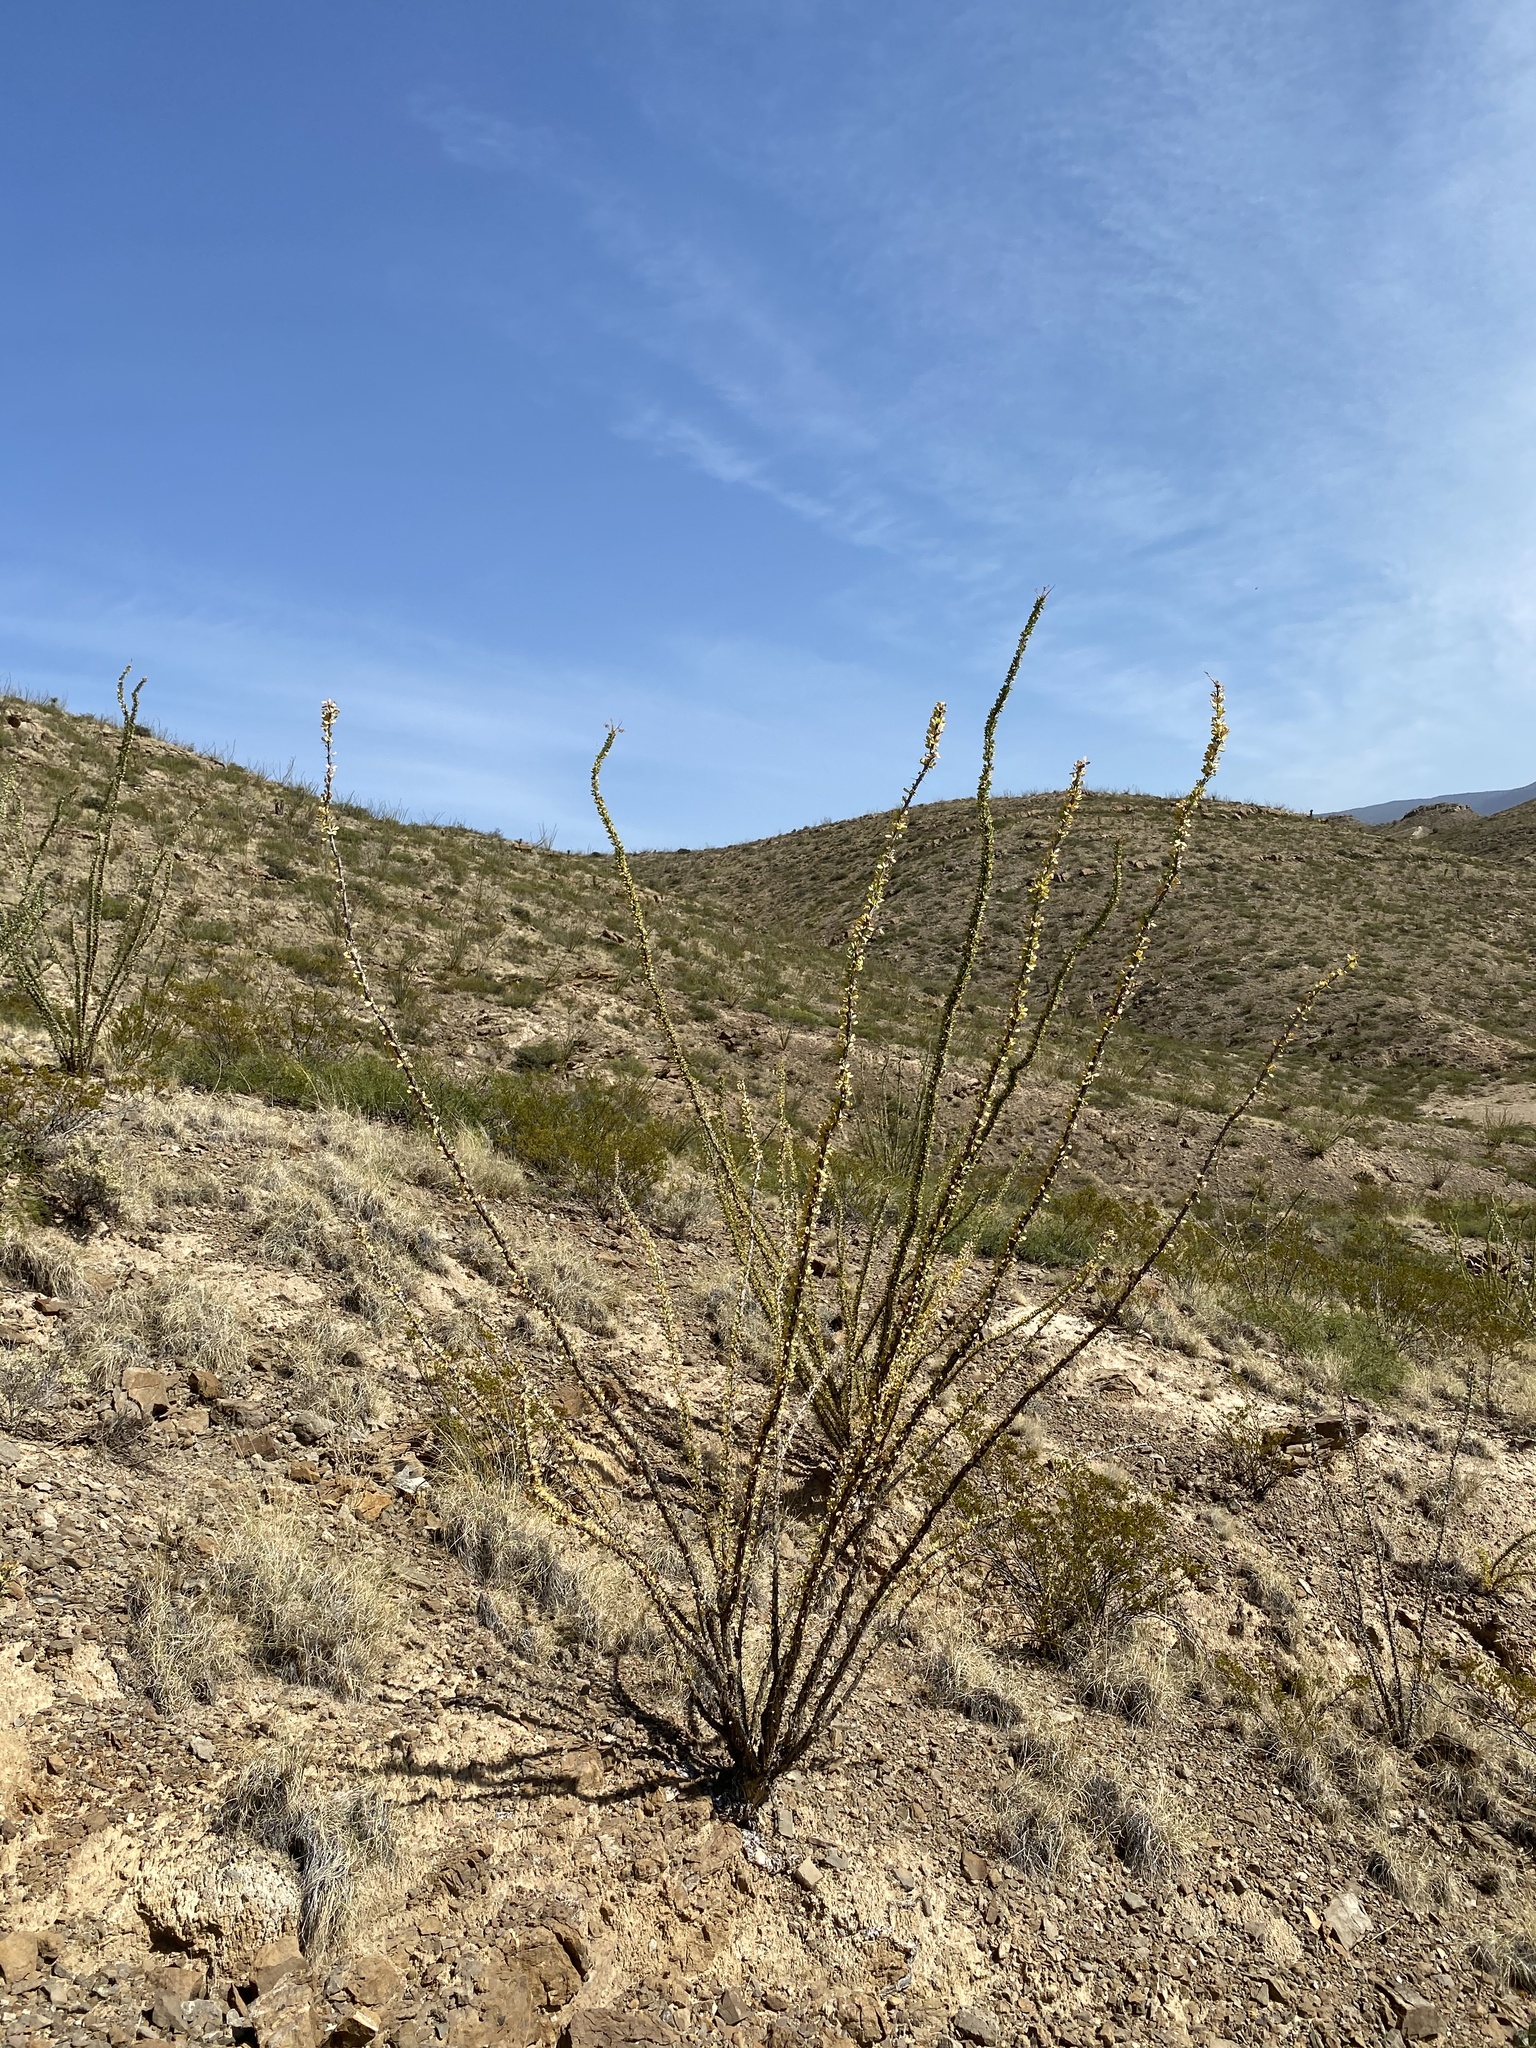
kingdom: Plantae
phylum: Tracheophyta
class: Magnoliopsida
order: Ericales
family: Fouquieriaceae
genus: Fouquieria
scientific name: Fouquieria splendens
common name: Vine-cactus
